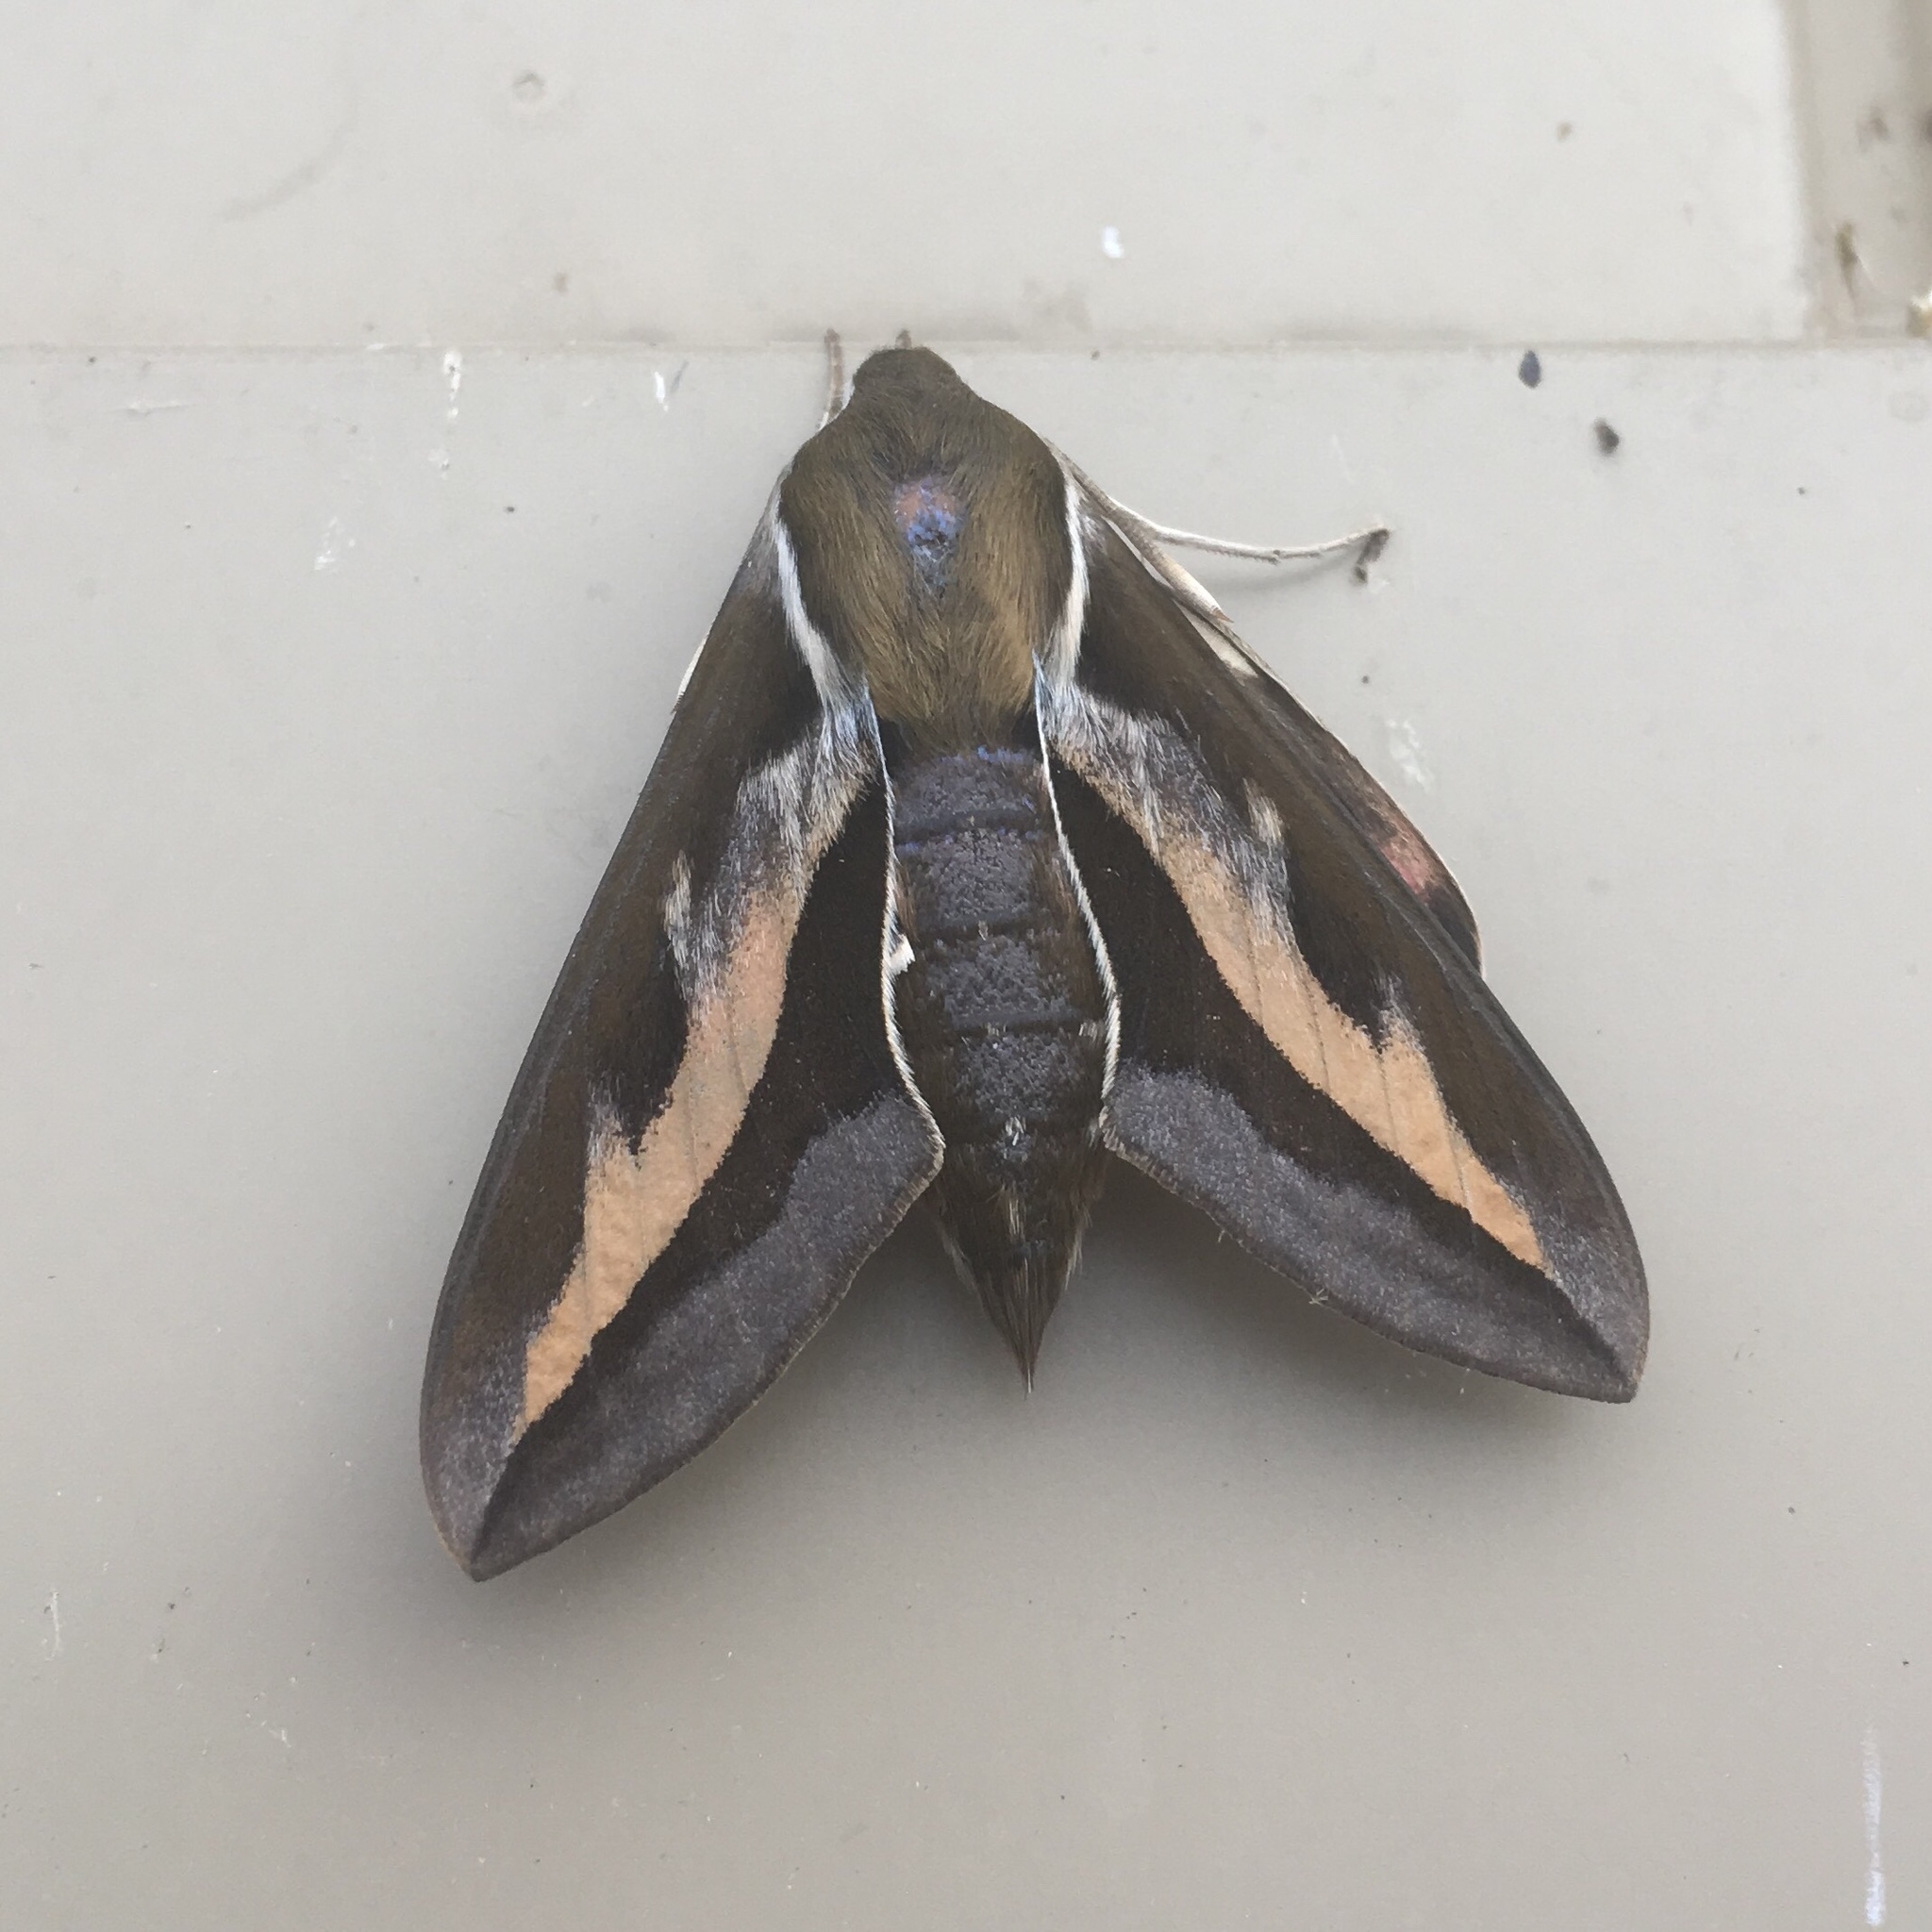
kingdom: Animalia
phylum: Arthropoda
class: Insecta
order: Lepidoptera
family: Sphingidae
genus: Hyles
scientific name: Hyles gallii
